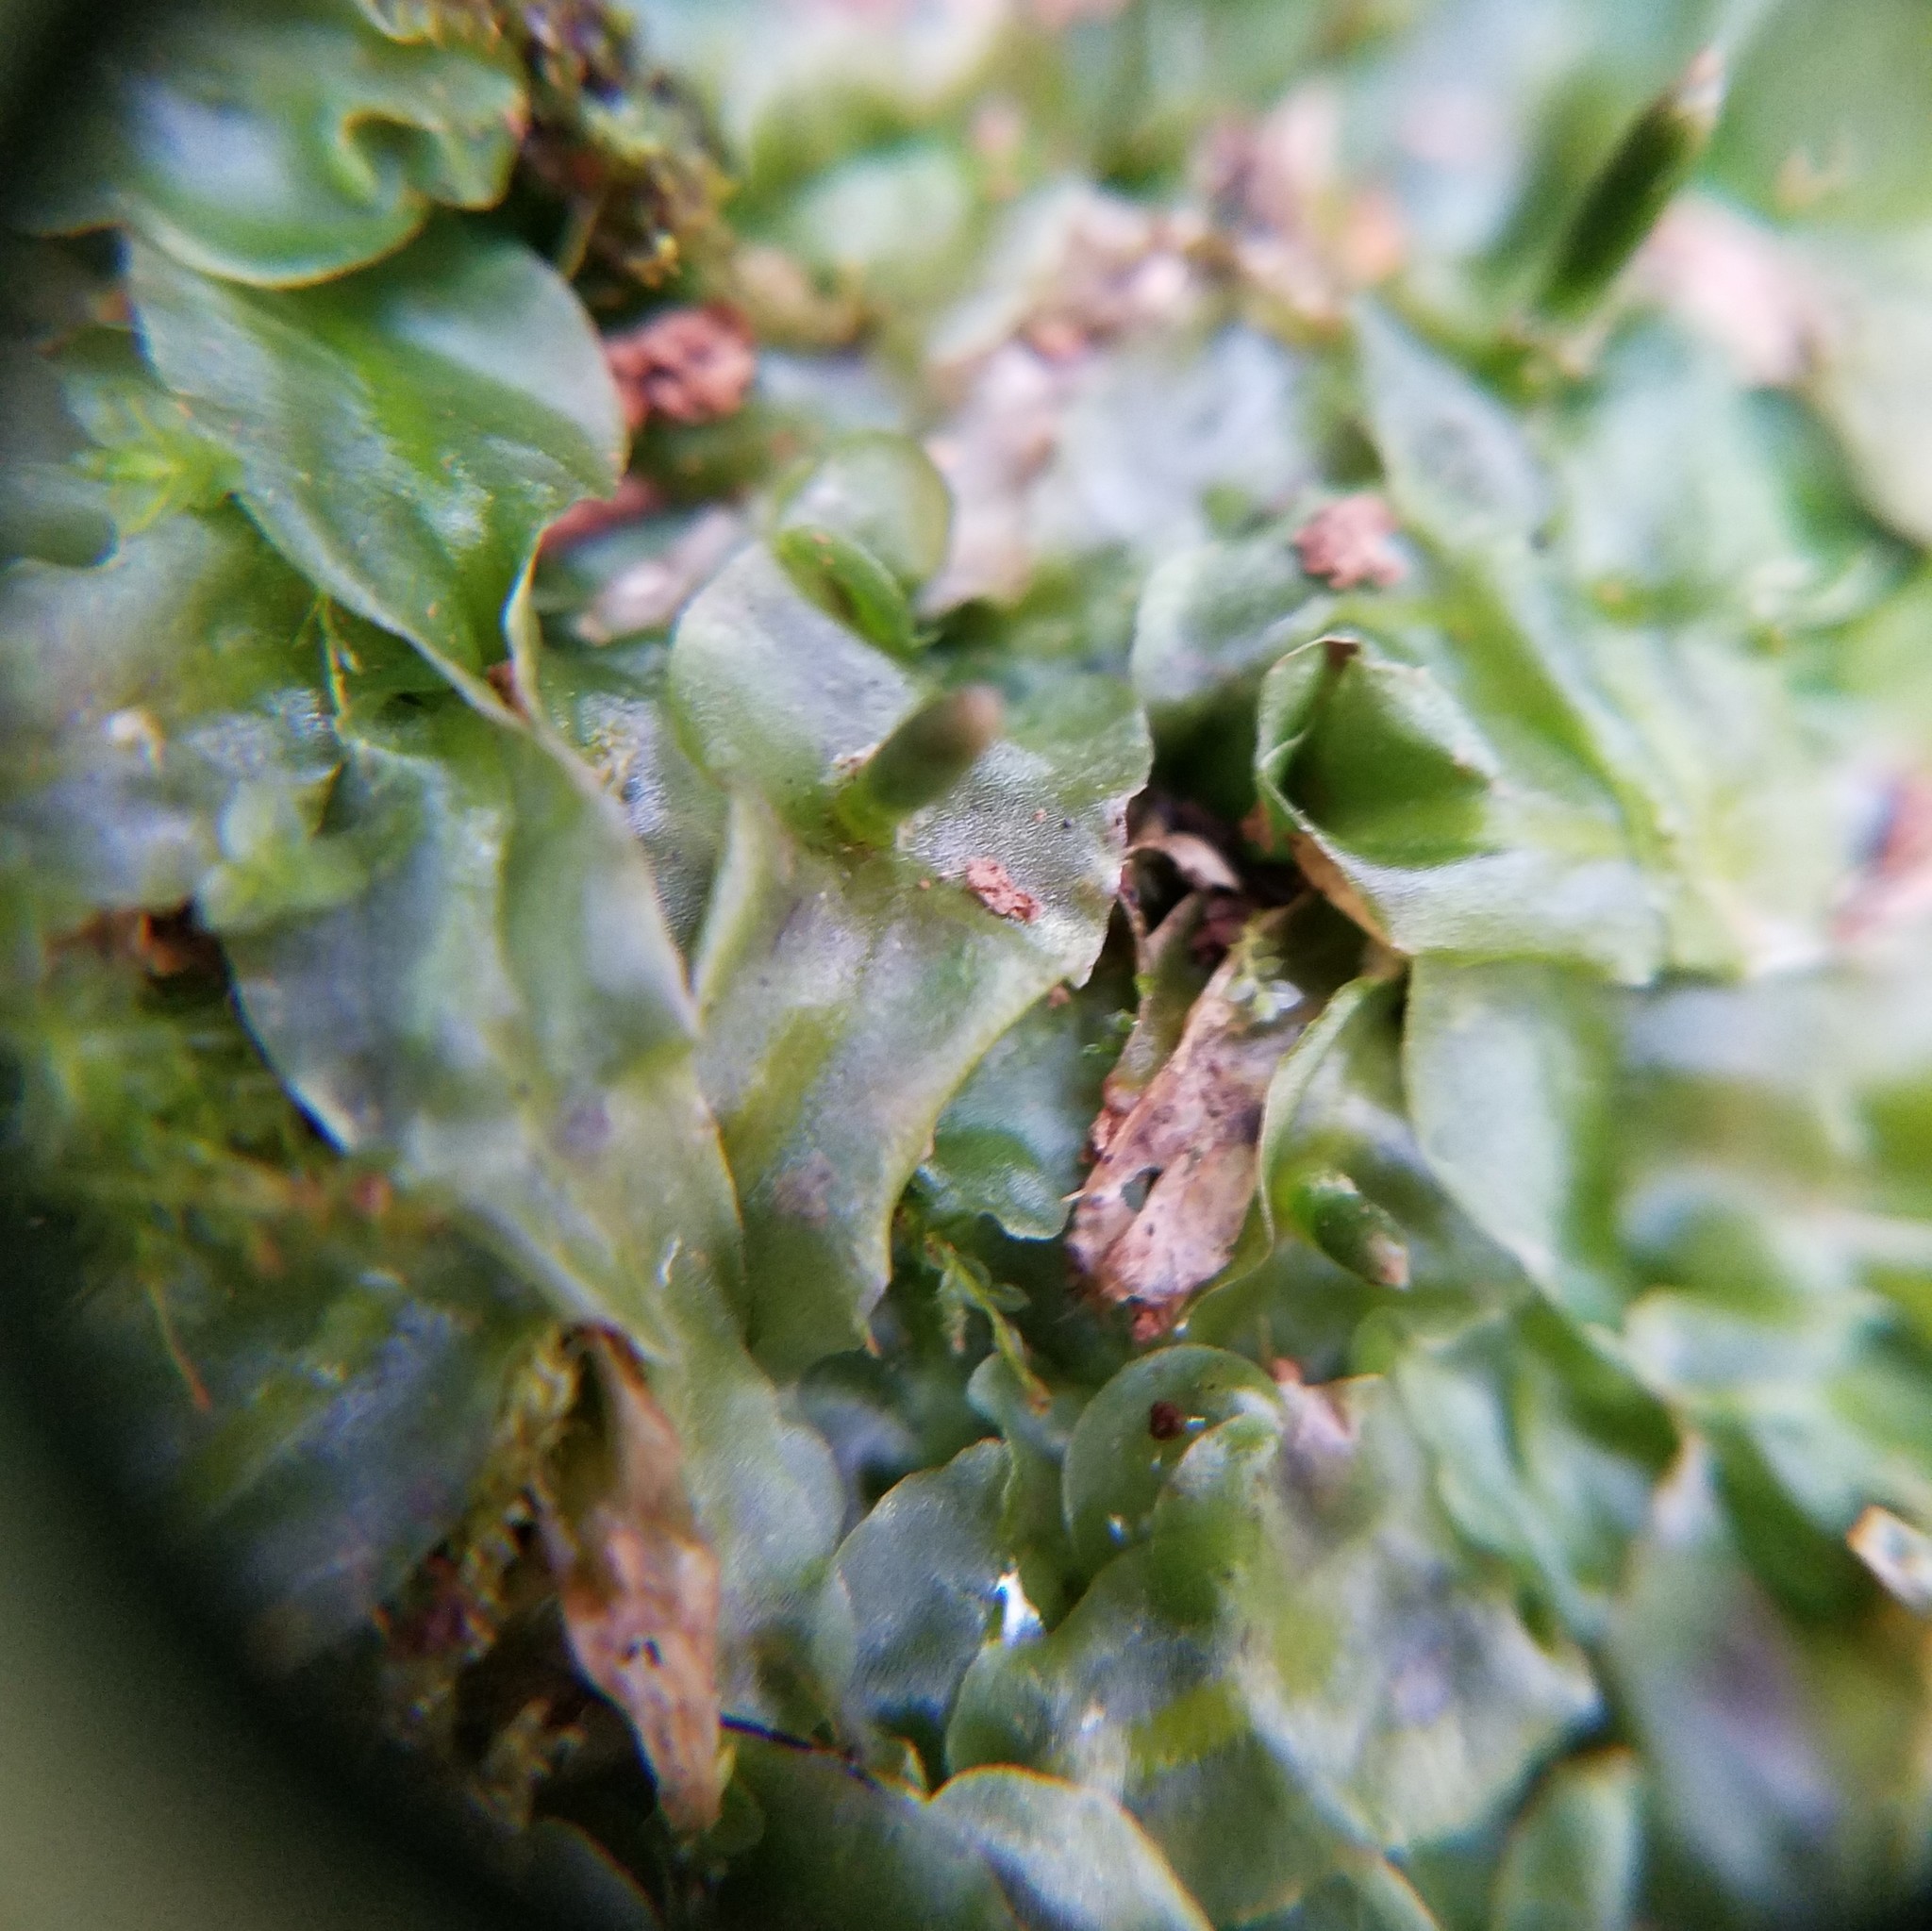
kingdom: Plantae
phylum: Marchantiophyta
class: Jungermanniopsida
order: Pallaviciniales
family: Pallaviciniaceae
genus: Pallavicinia
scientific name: Pallavicinia lyellii
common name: Veilwort
